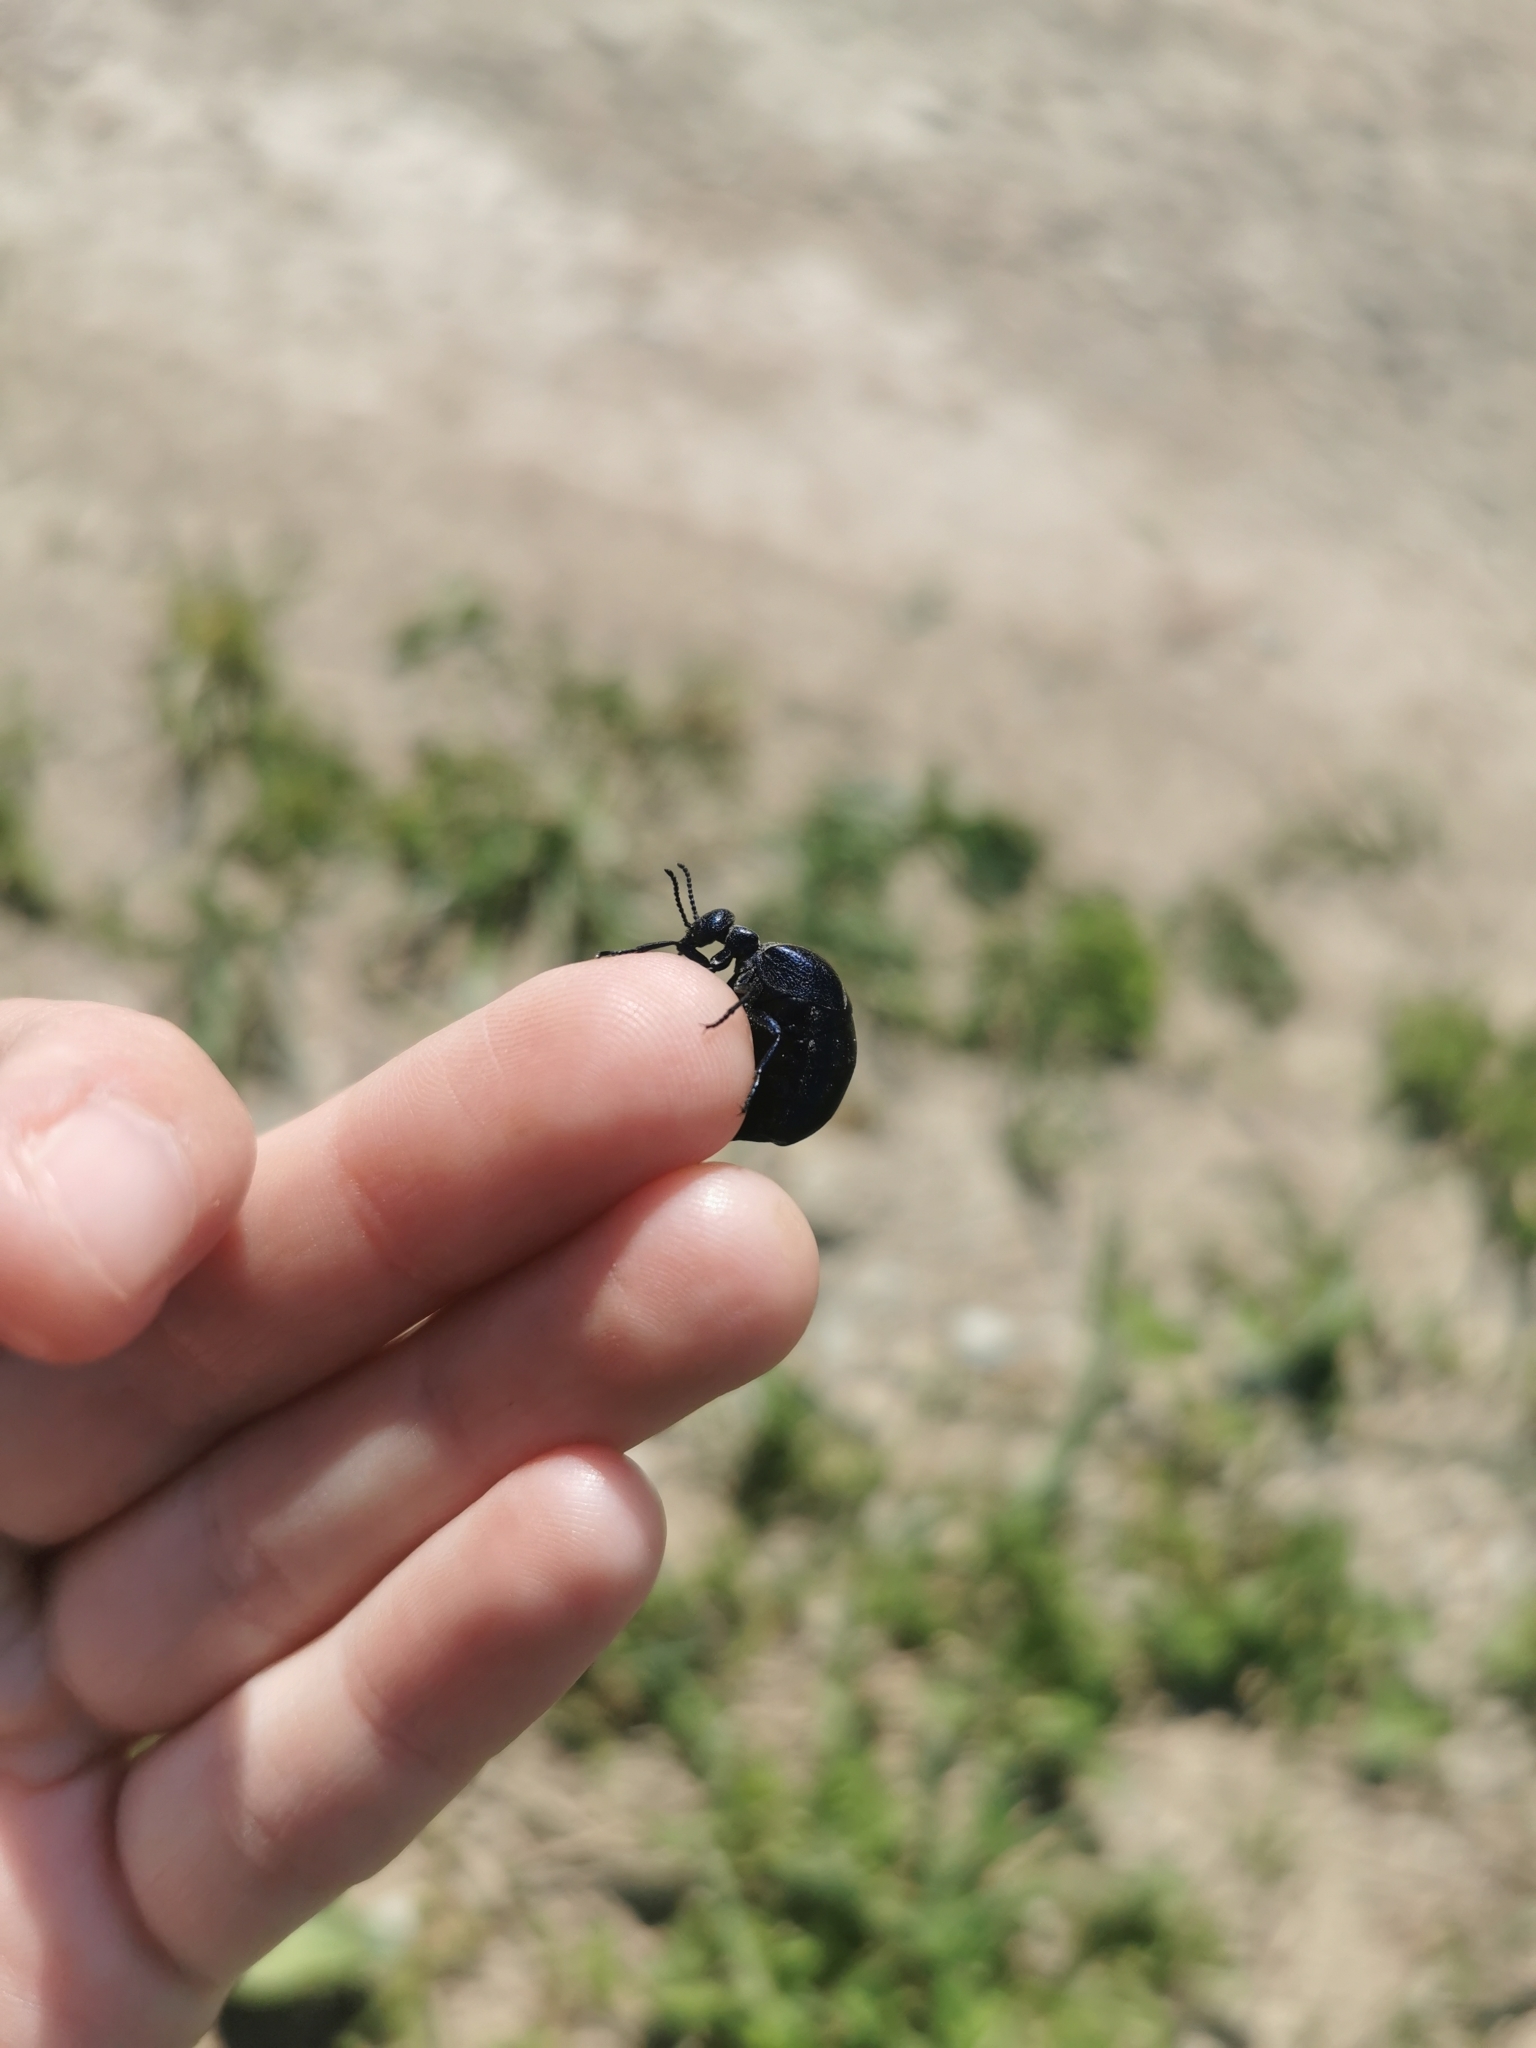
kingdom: Animalia
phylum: Arthropoda
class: Insecta
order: Coleoptera
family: Meloidae
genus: Meloe
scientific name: Meloe brevicollis
